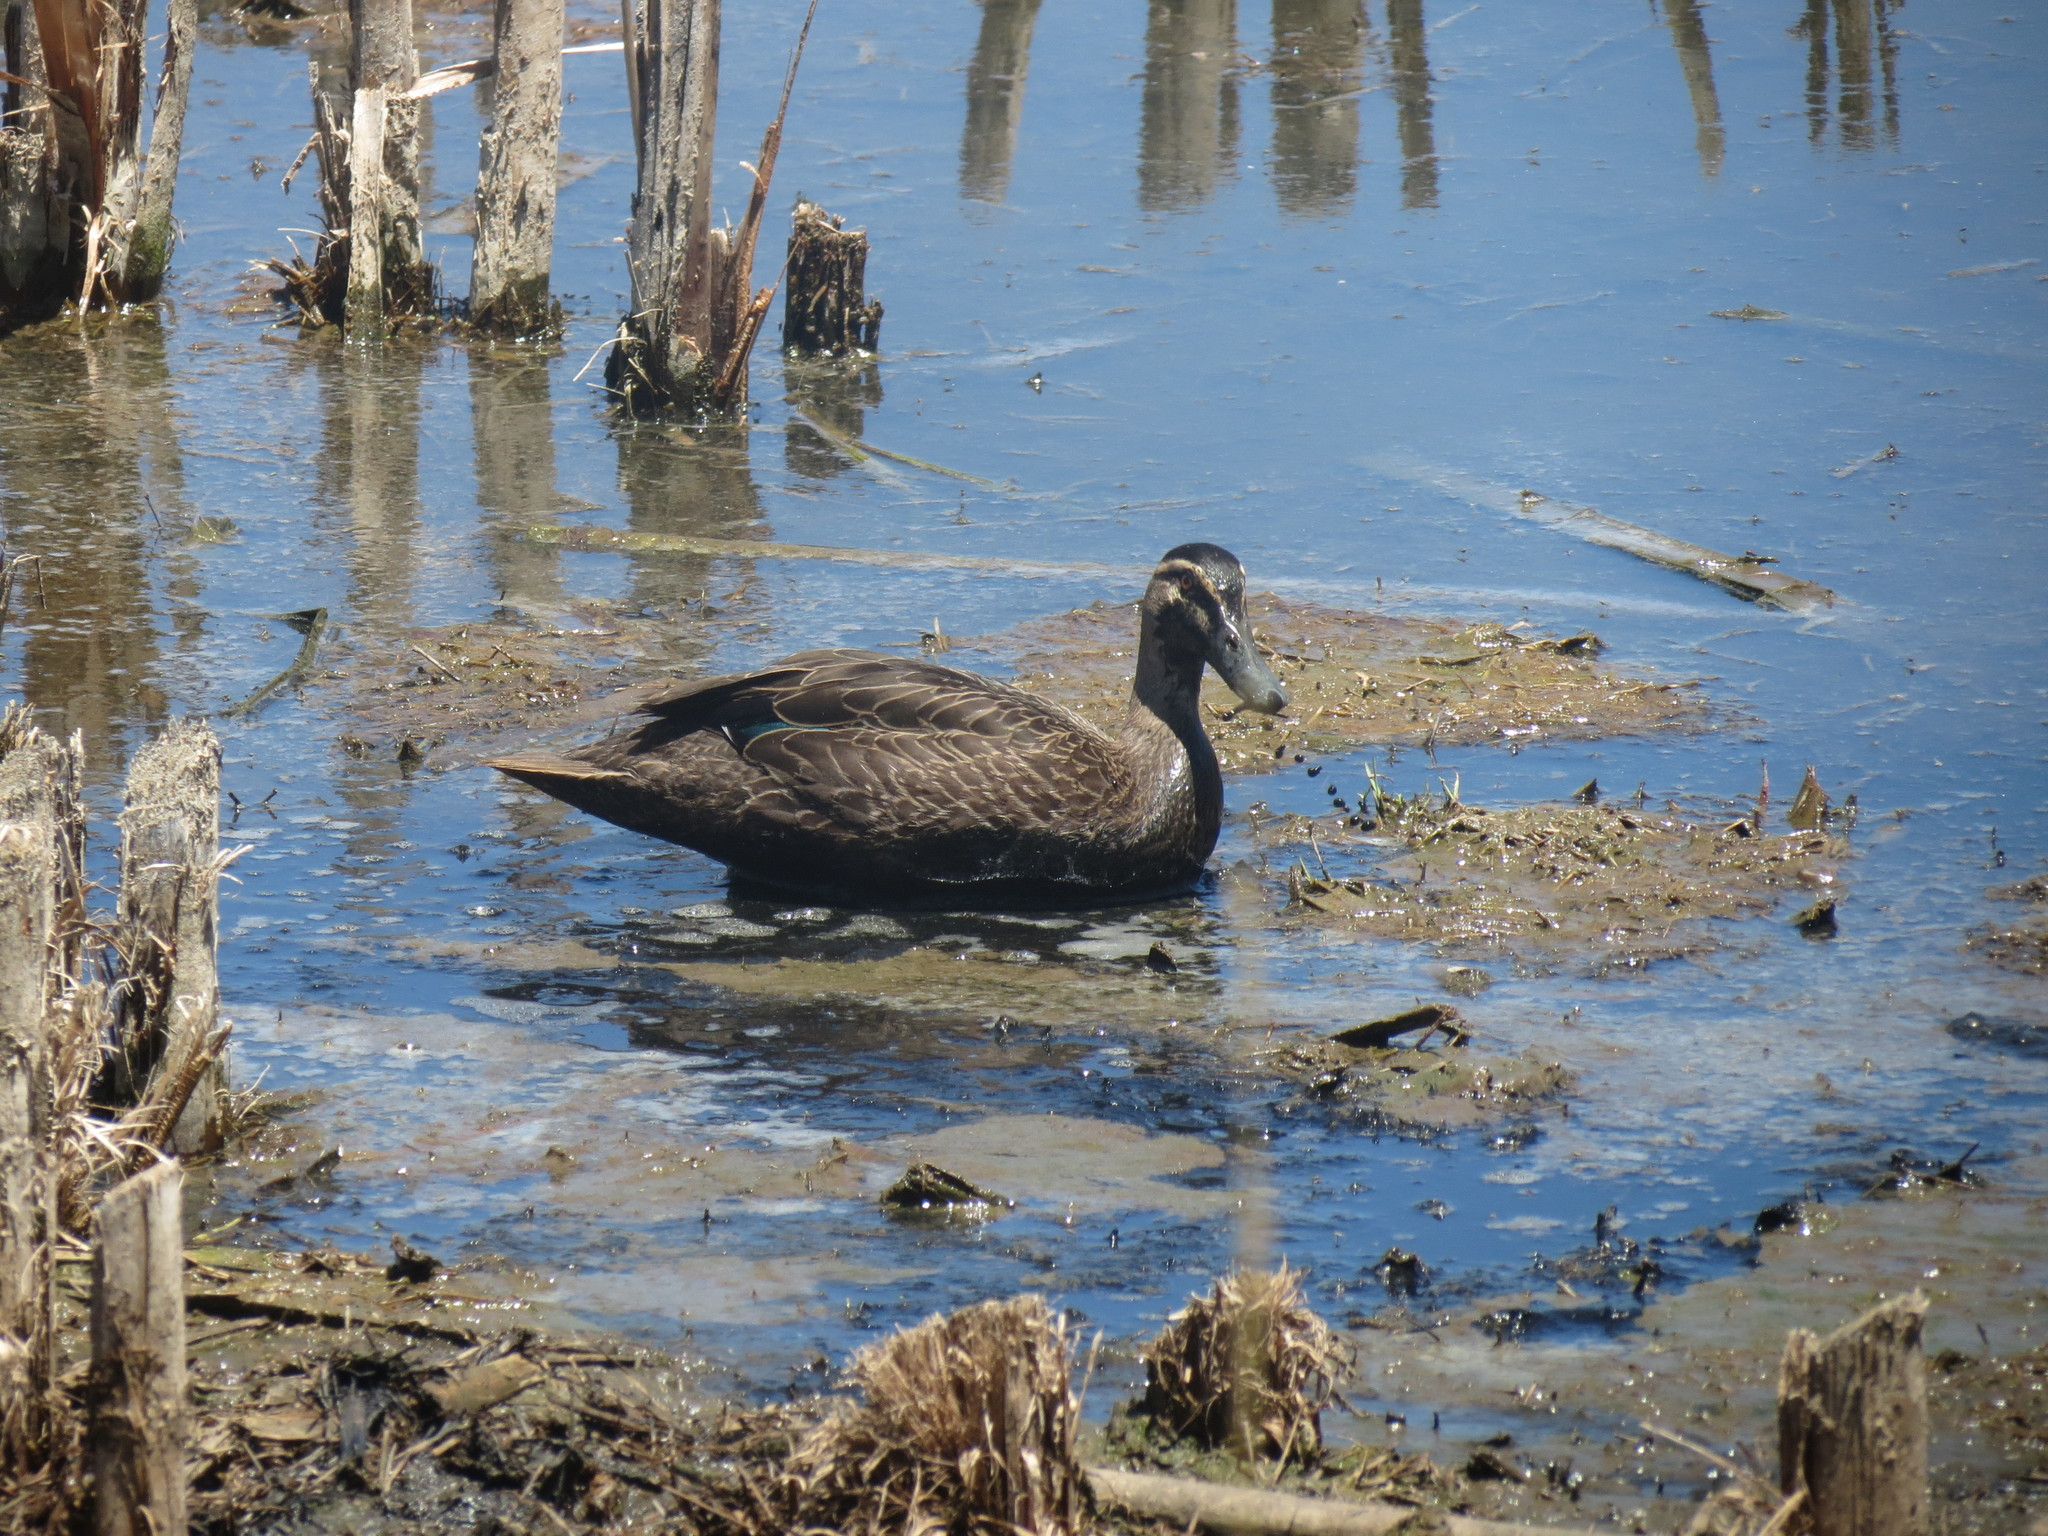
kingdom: Animalia
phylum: Chordata
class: Aves
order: Anseriformes
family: Anatidae
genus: Anas
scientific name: Anas superciliosa
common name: Pacific black duck
